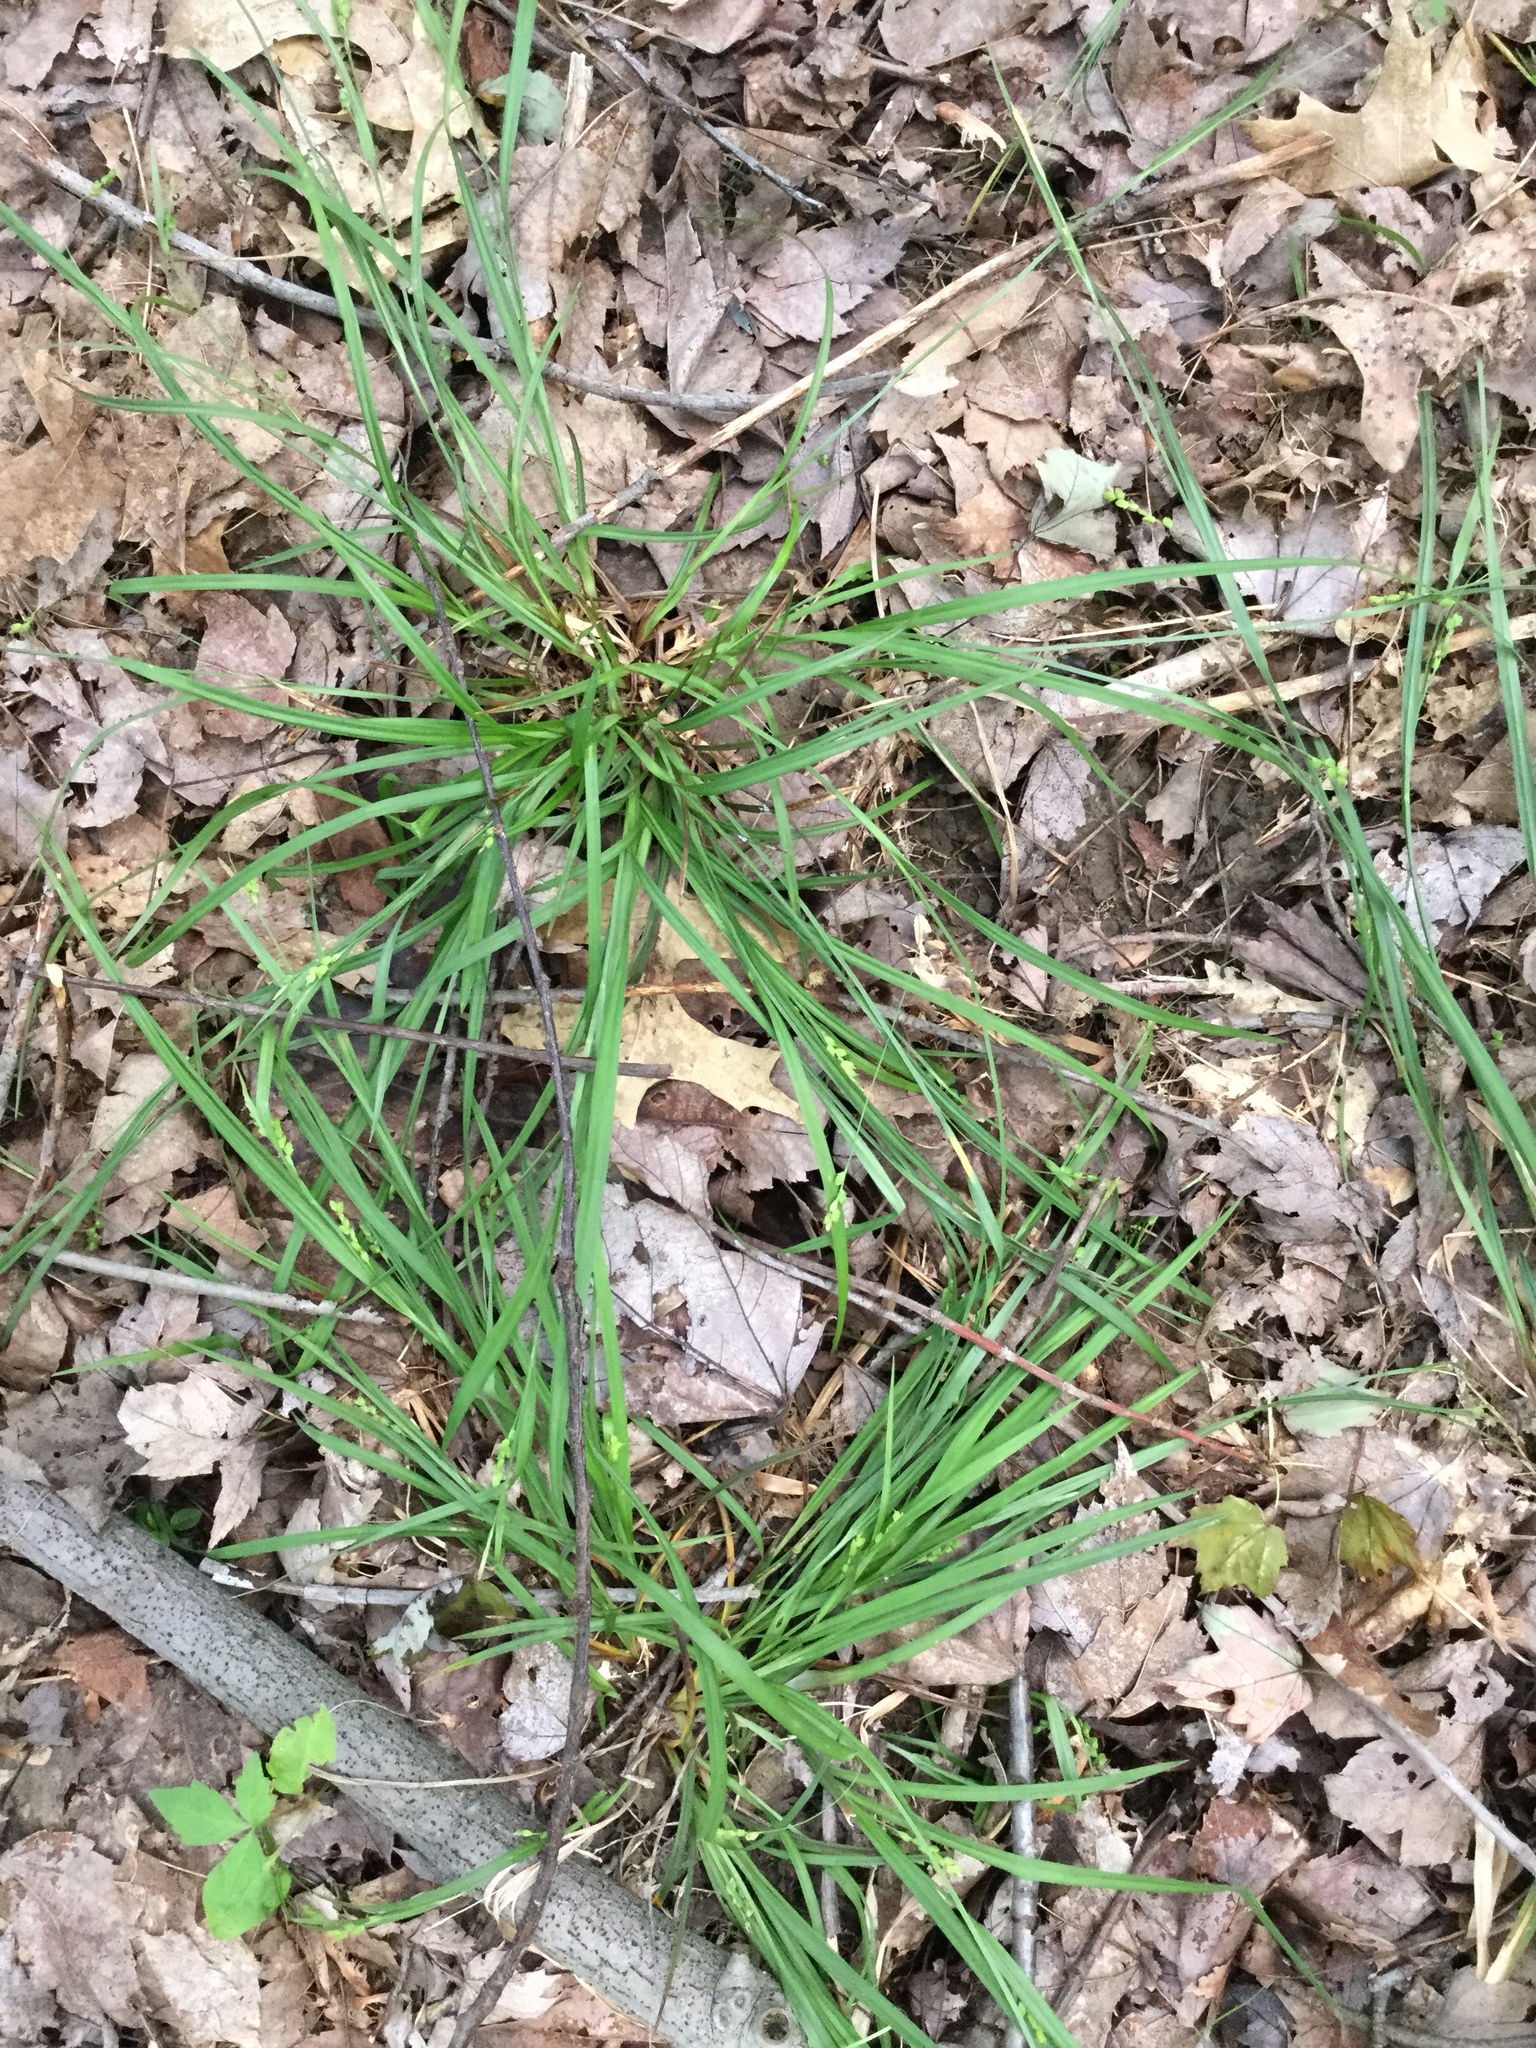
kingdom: Plantae
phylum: Tracheophyta
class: Liliopsida
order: Poales
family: Cyperaceae
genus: Carex
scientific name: Carex digitalis
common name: Slender wood sedge
